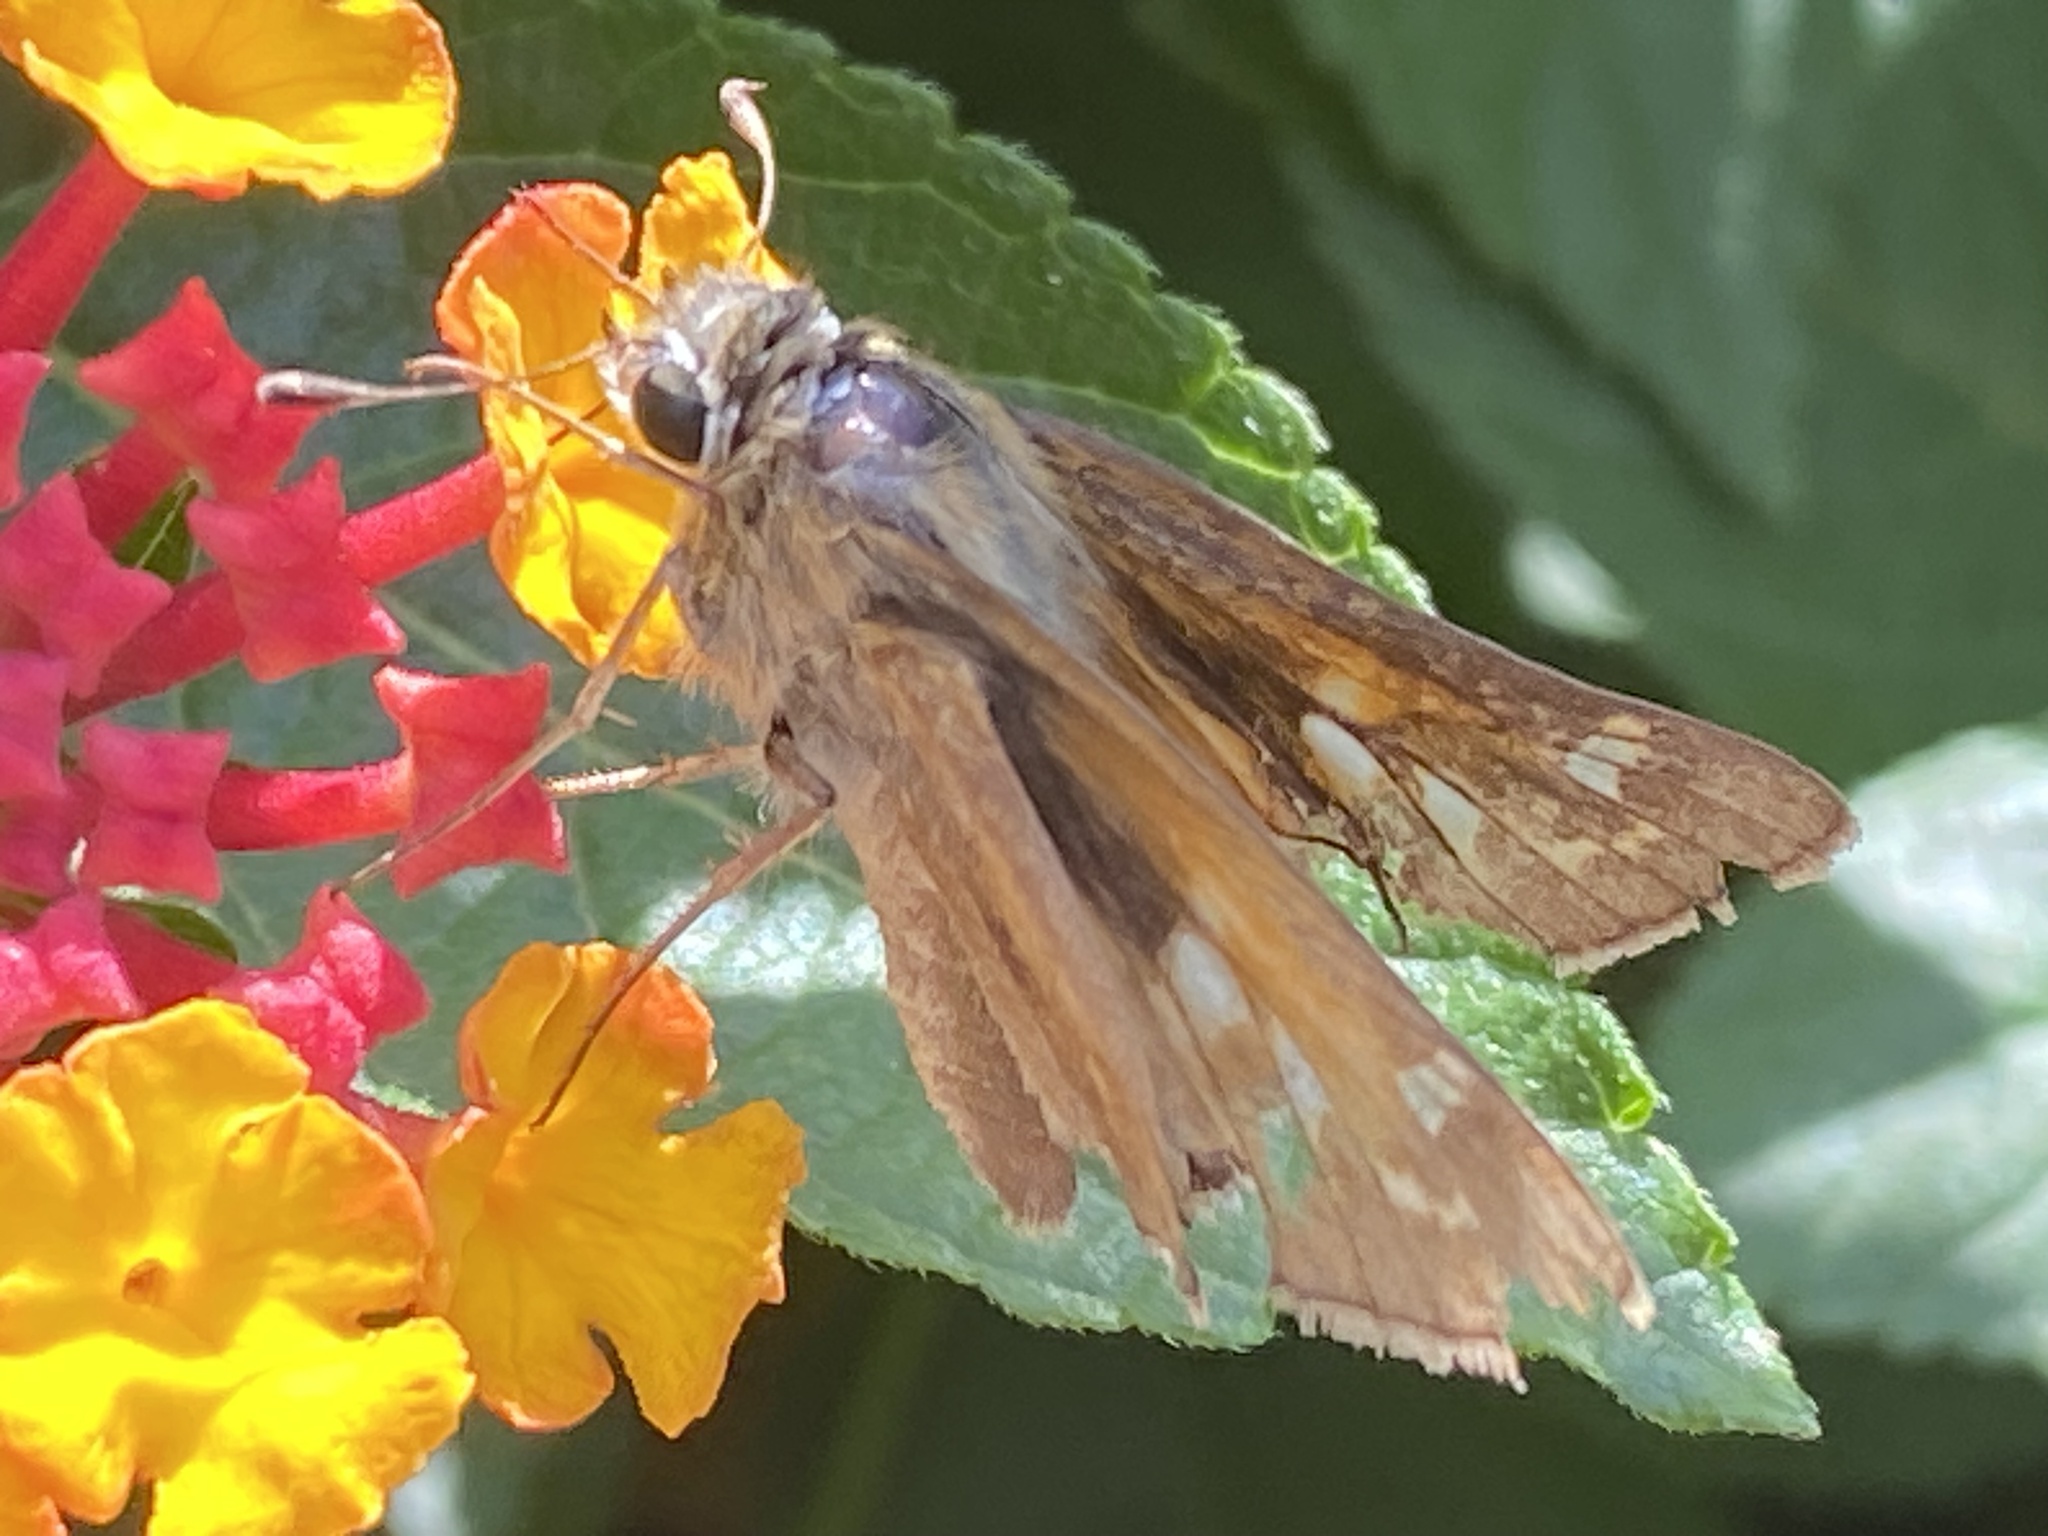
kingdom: Animalia
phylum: Arthropoda
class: Insecta
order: Lepidoptera
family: Hesperiidae
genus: Atalopedes
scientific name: Atalopedes
